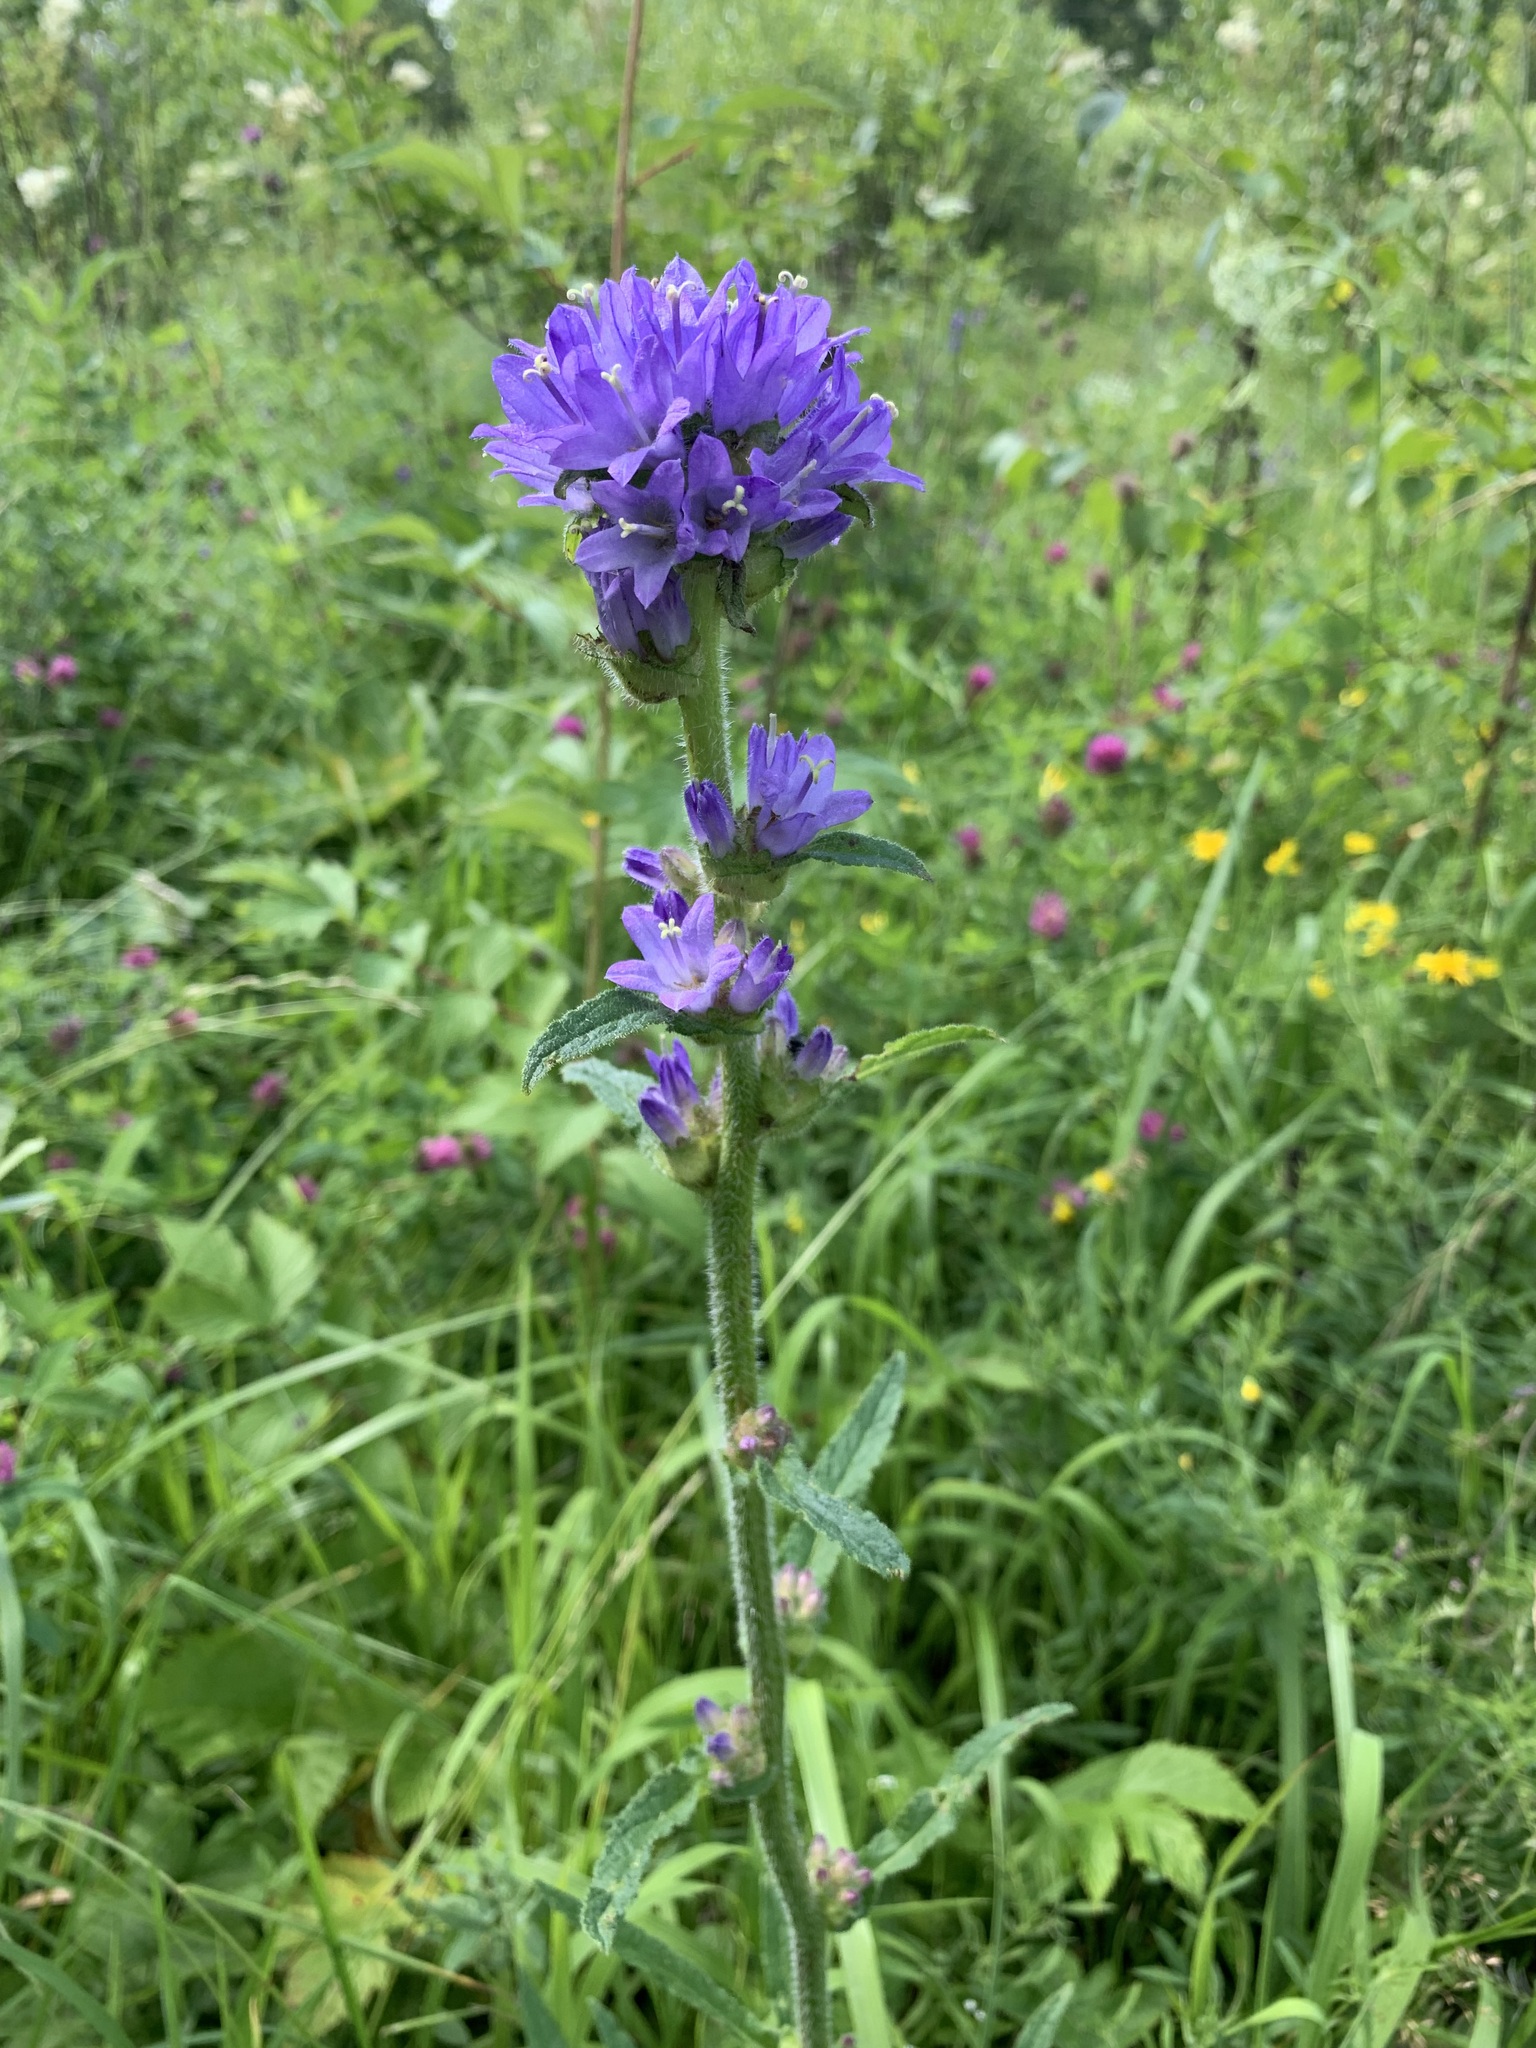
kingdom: Plantae
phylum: Tracheophyta
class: Magnoliopsida
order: Asterales
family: Campanulaceae
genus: Campanula
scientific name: Campanula cervicaria
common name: Bristly bellflower
